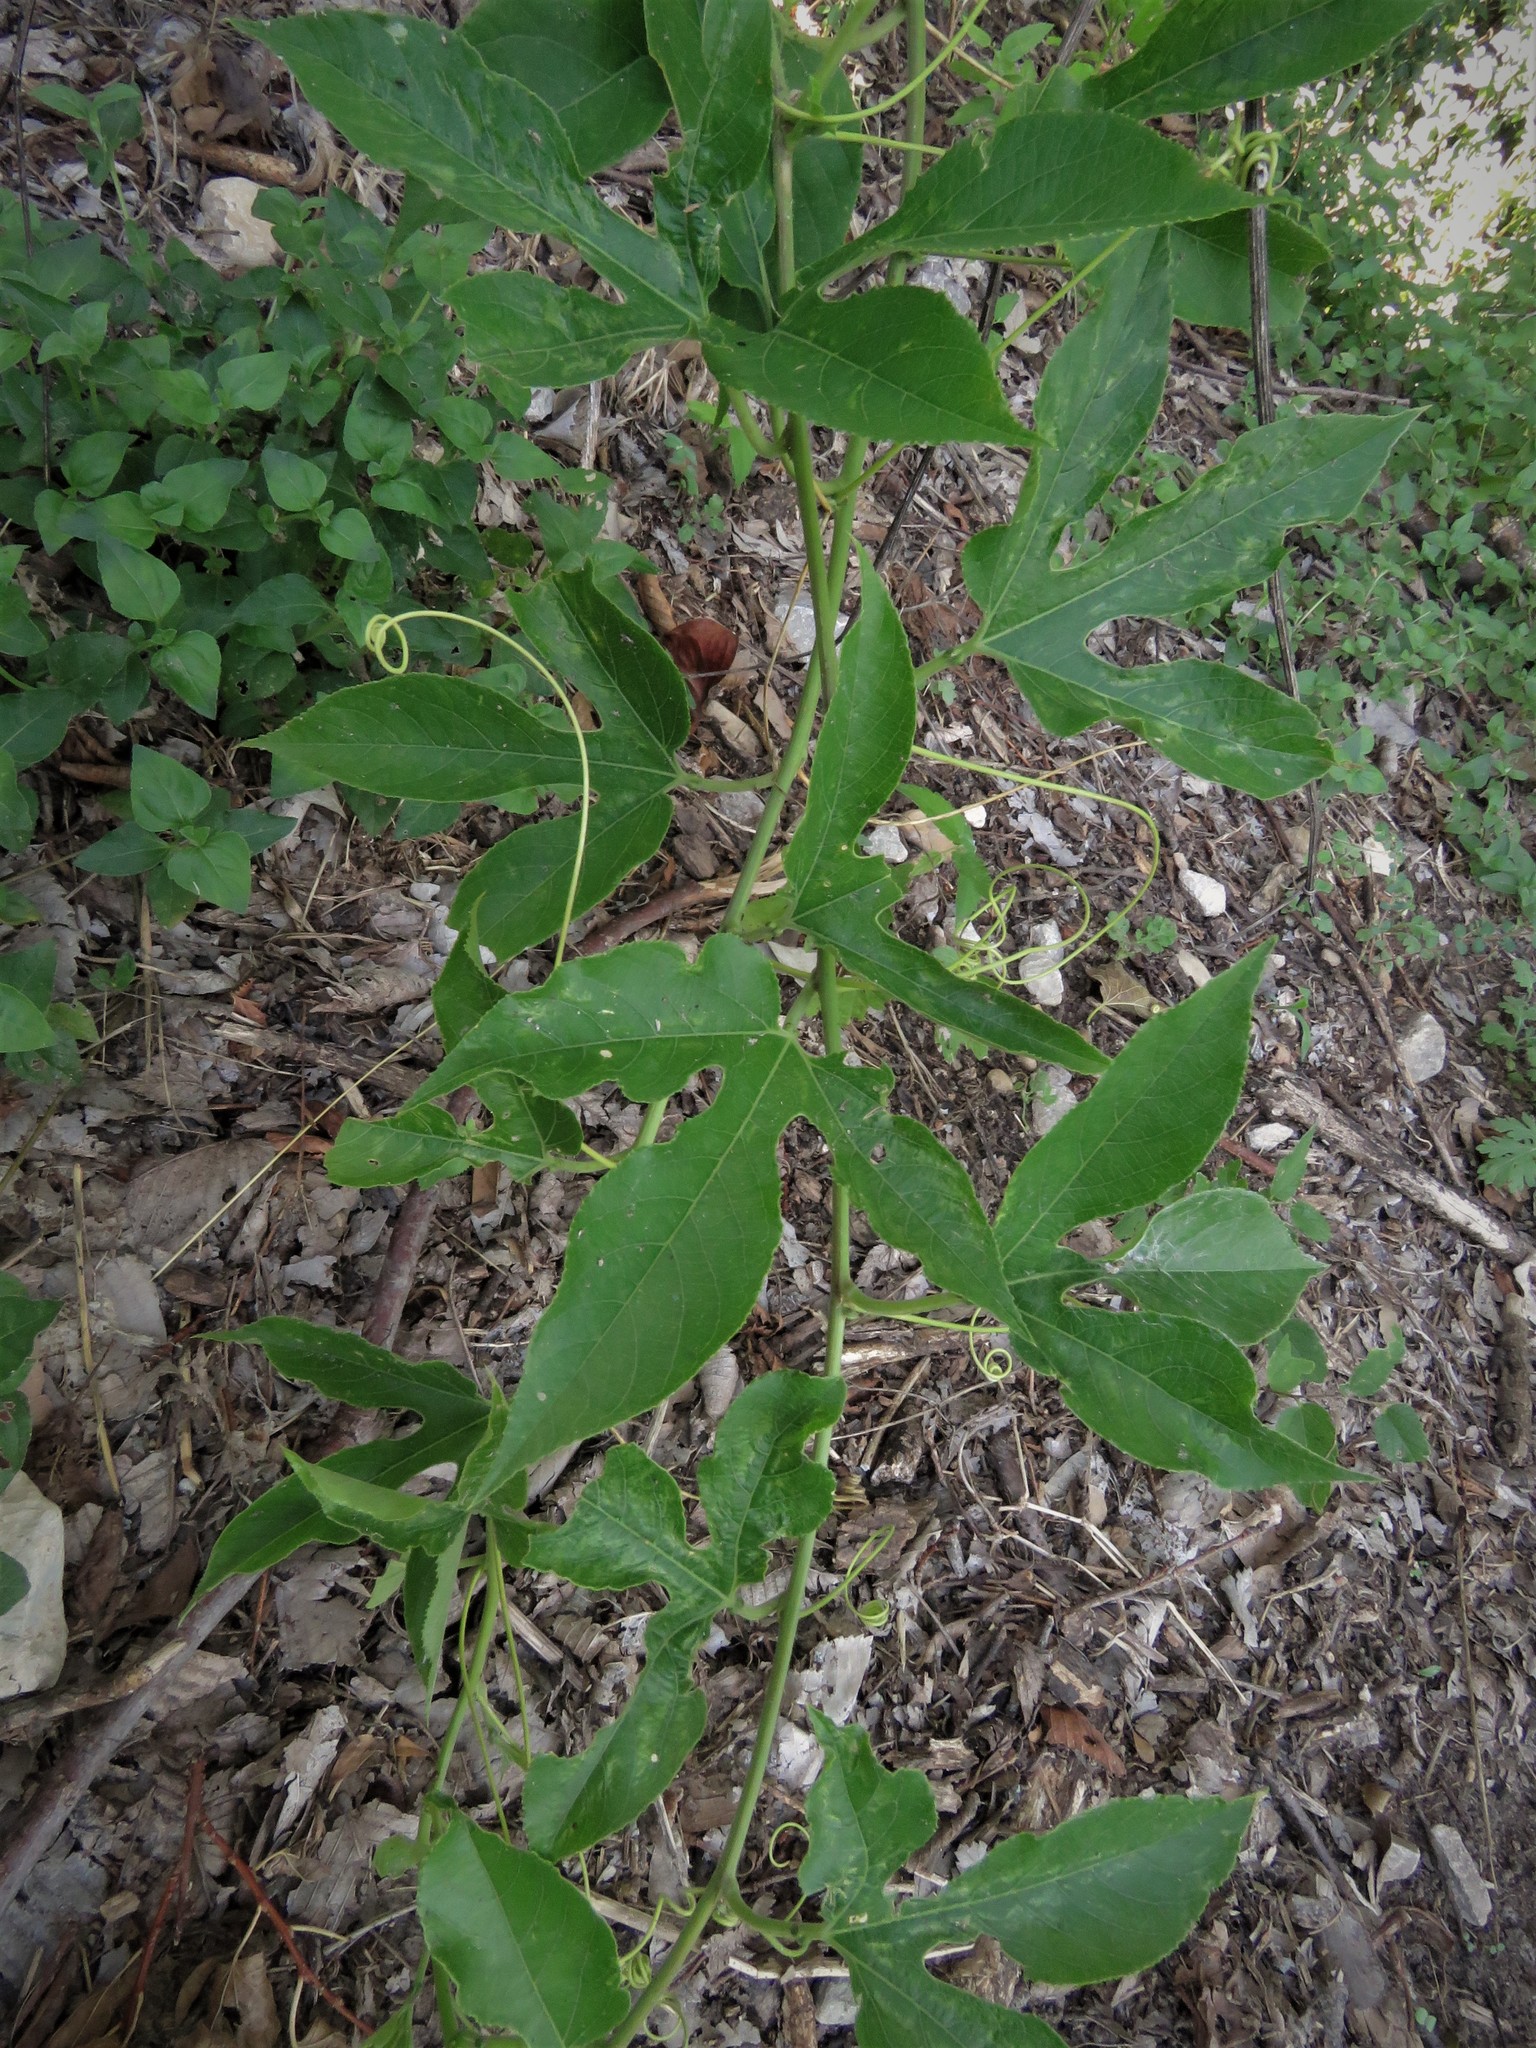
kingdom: Plantae
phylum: Tracheophyta
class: Magnoliopsida
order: Malpighiales
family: Passifloraceae
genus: Passiflora
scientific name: Passiflora incarnata
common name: Apricot-vine
